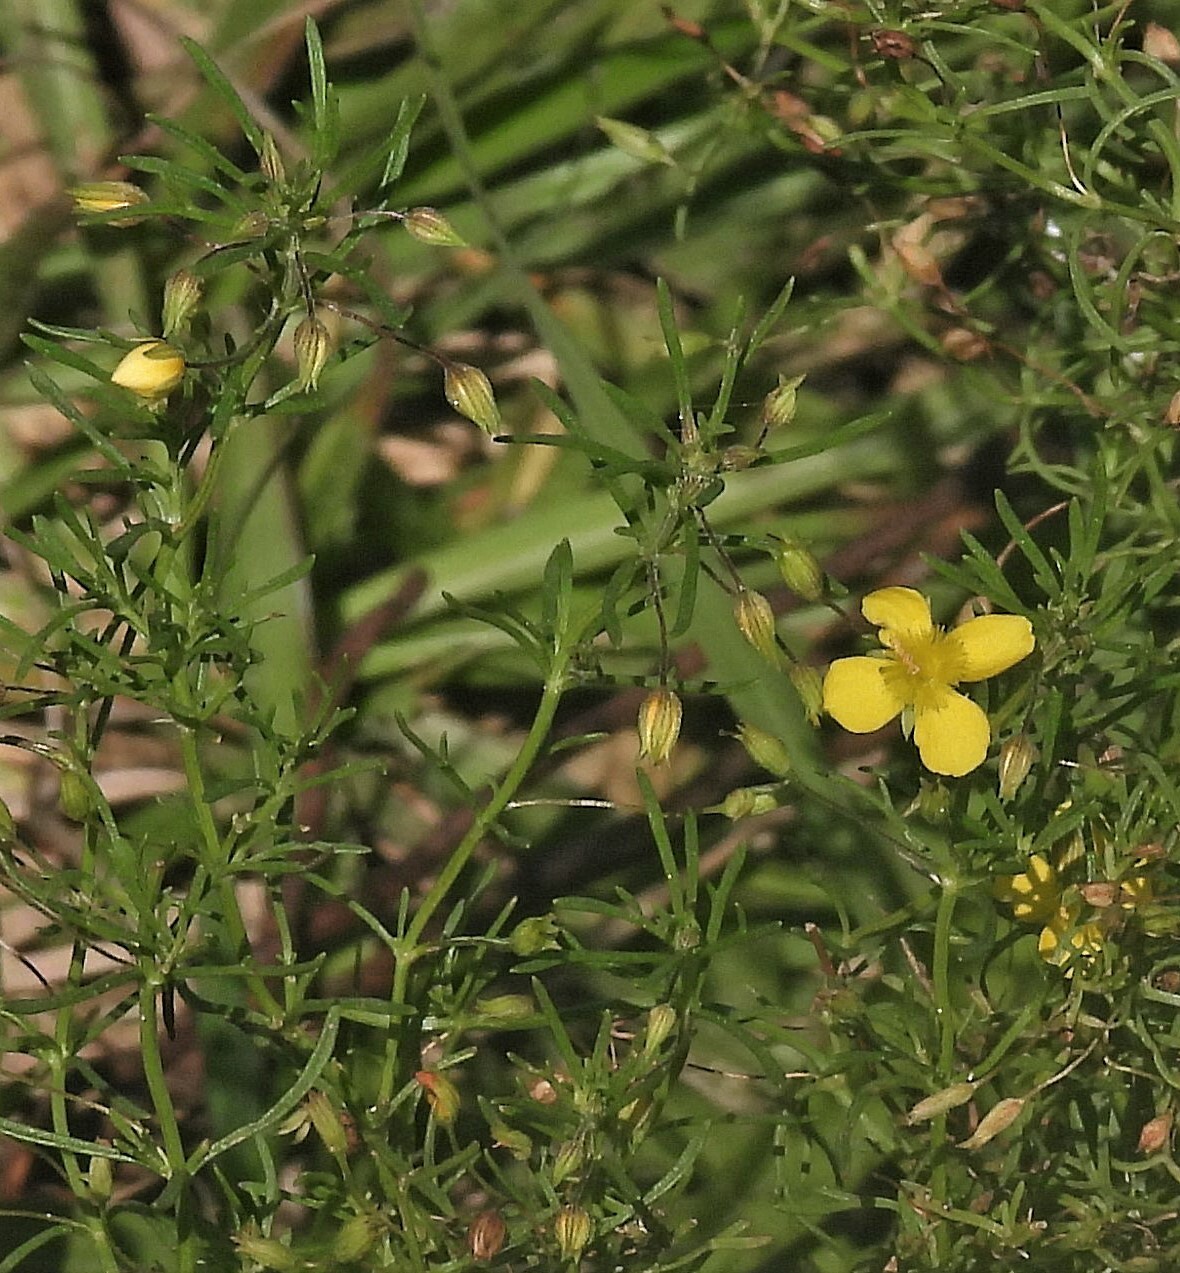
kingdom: Plantae
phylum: Tracheophyta
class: Magnoliopsida
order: Lamiales
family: Plantaginaceae
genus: Scoparia
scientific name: Scoparia montevidensis
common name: Broomwort
